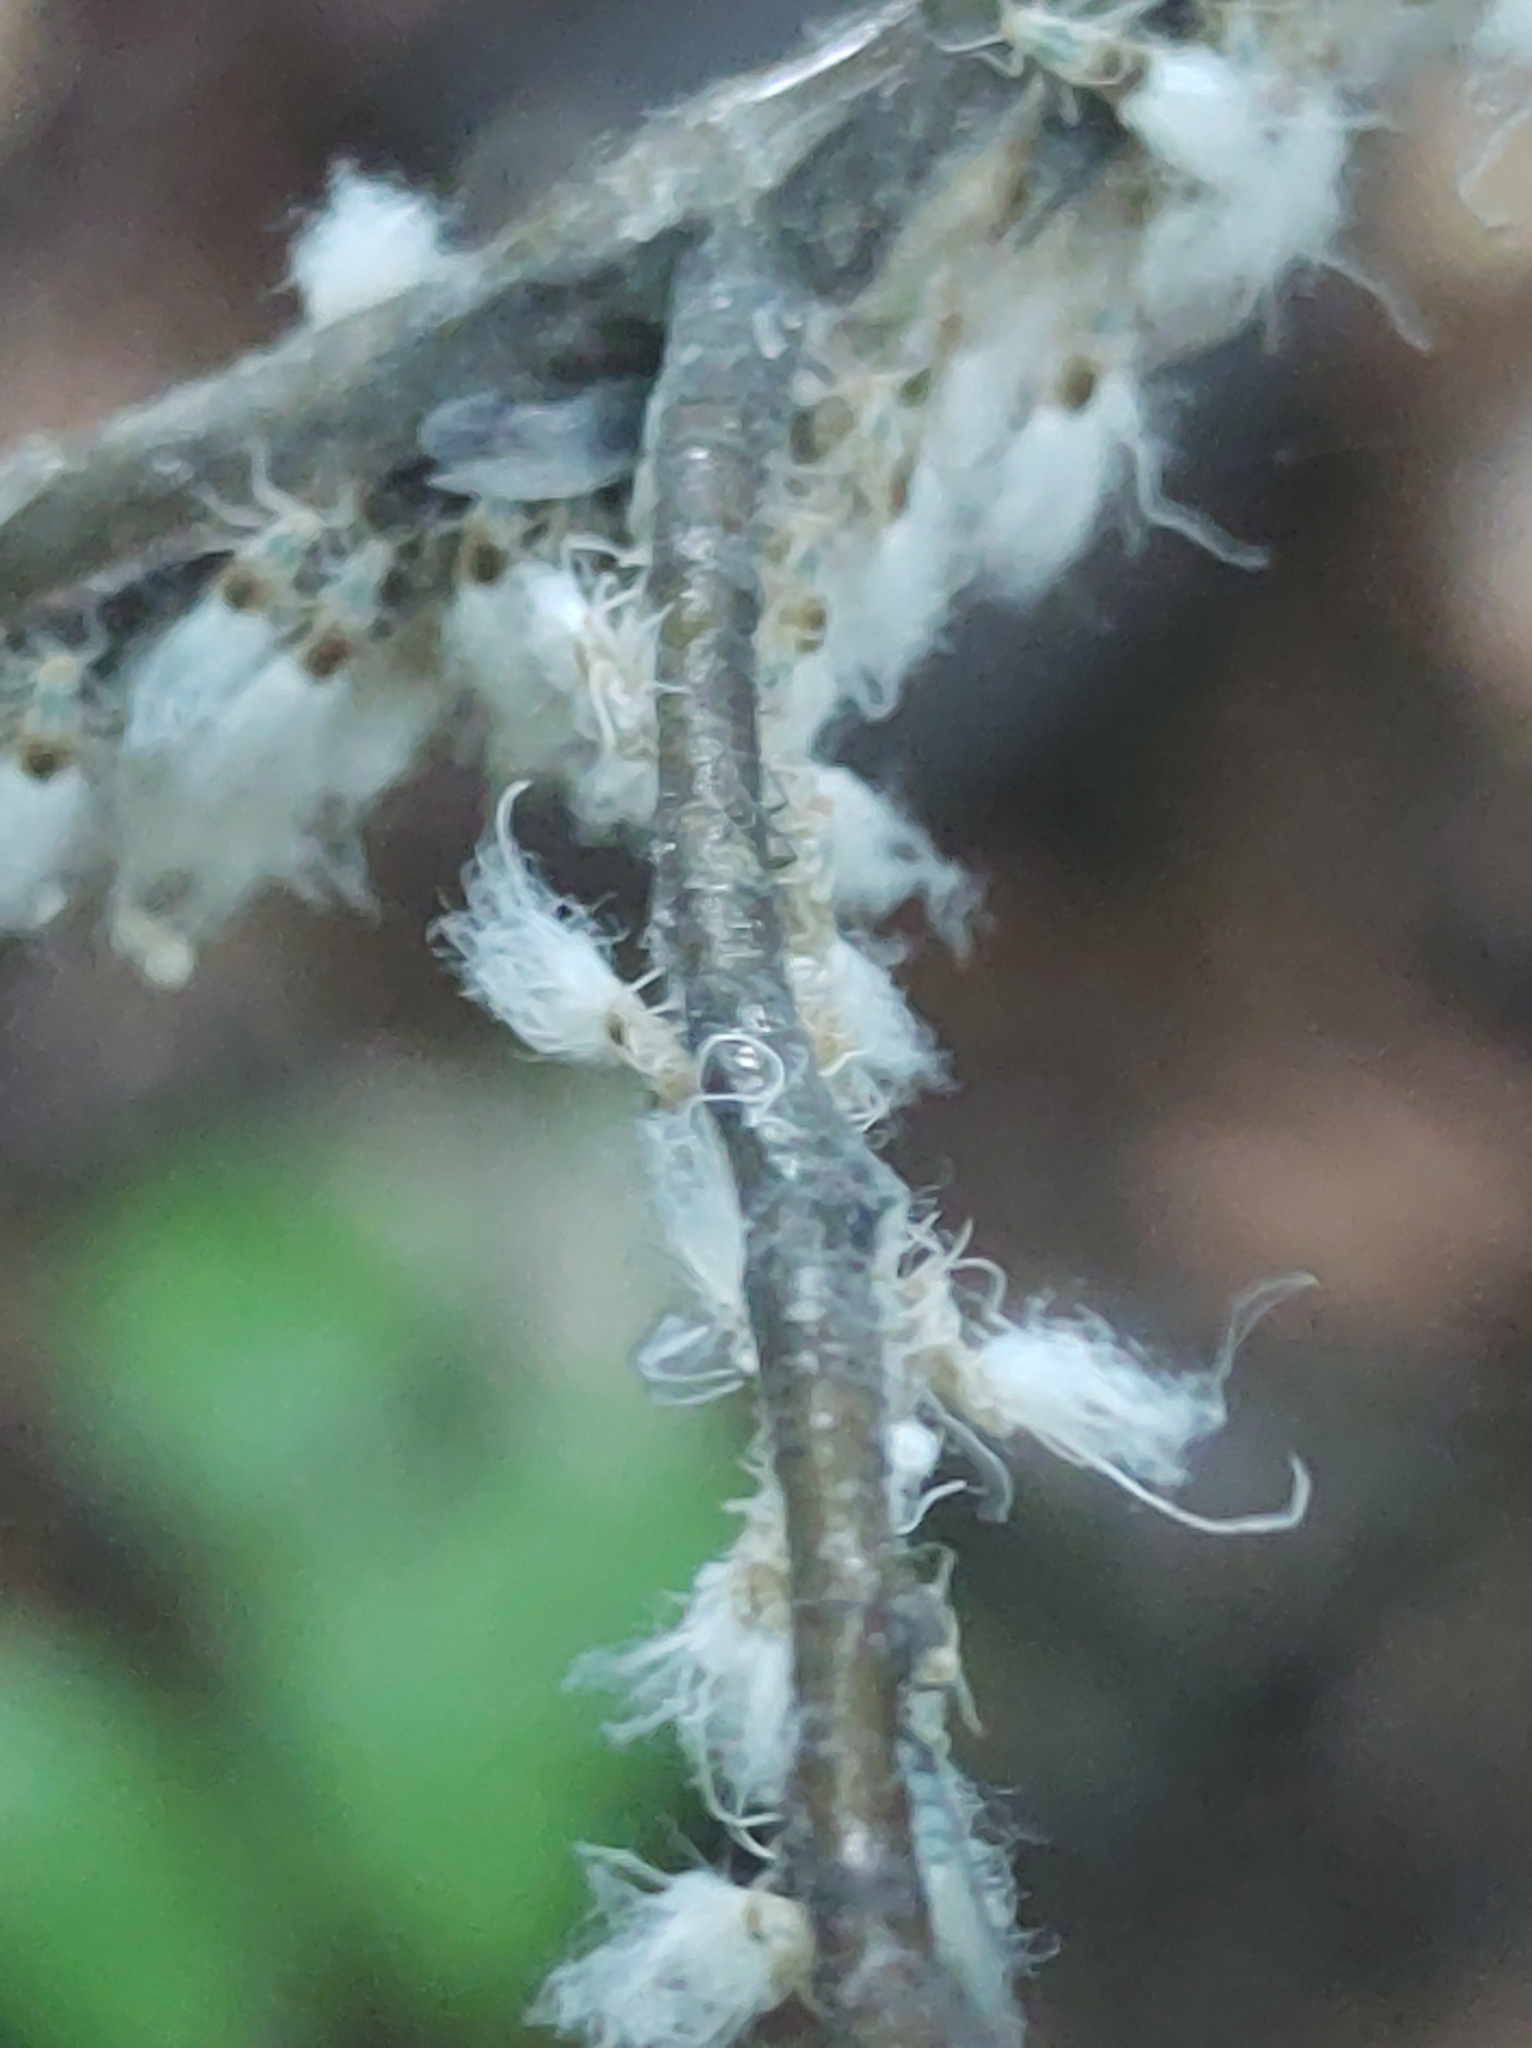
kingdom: Animalia
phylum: Arthropoda
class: Insecta
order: Hemiptera
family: Aphididae
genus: Grylloprociphilus
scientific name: Grylloprociphilus imbricator
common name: Beech blight aphid
